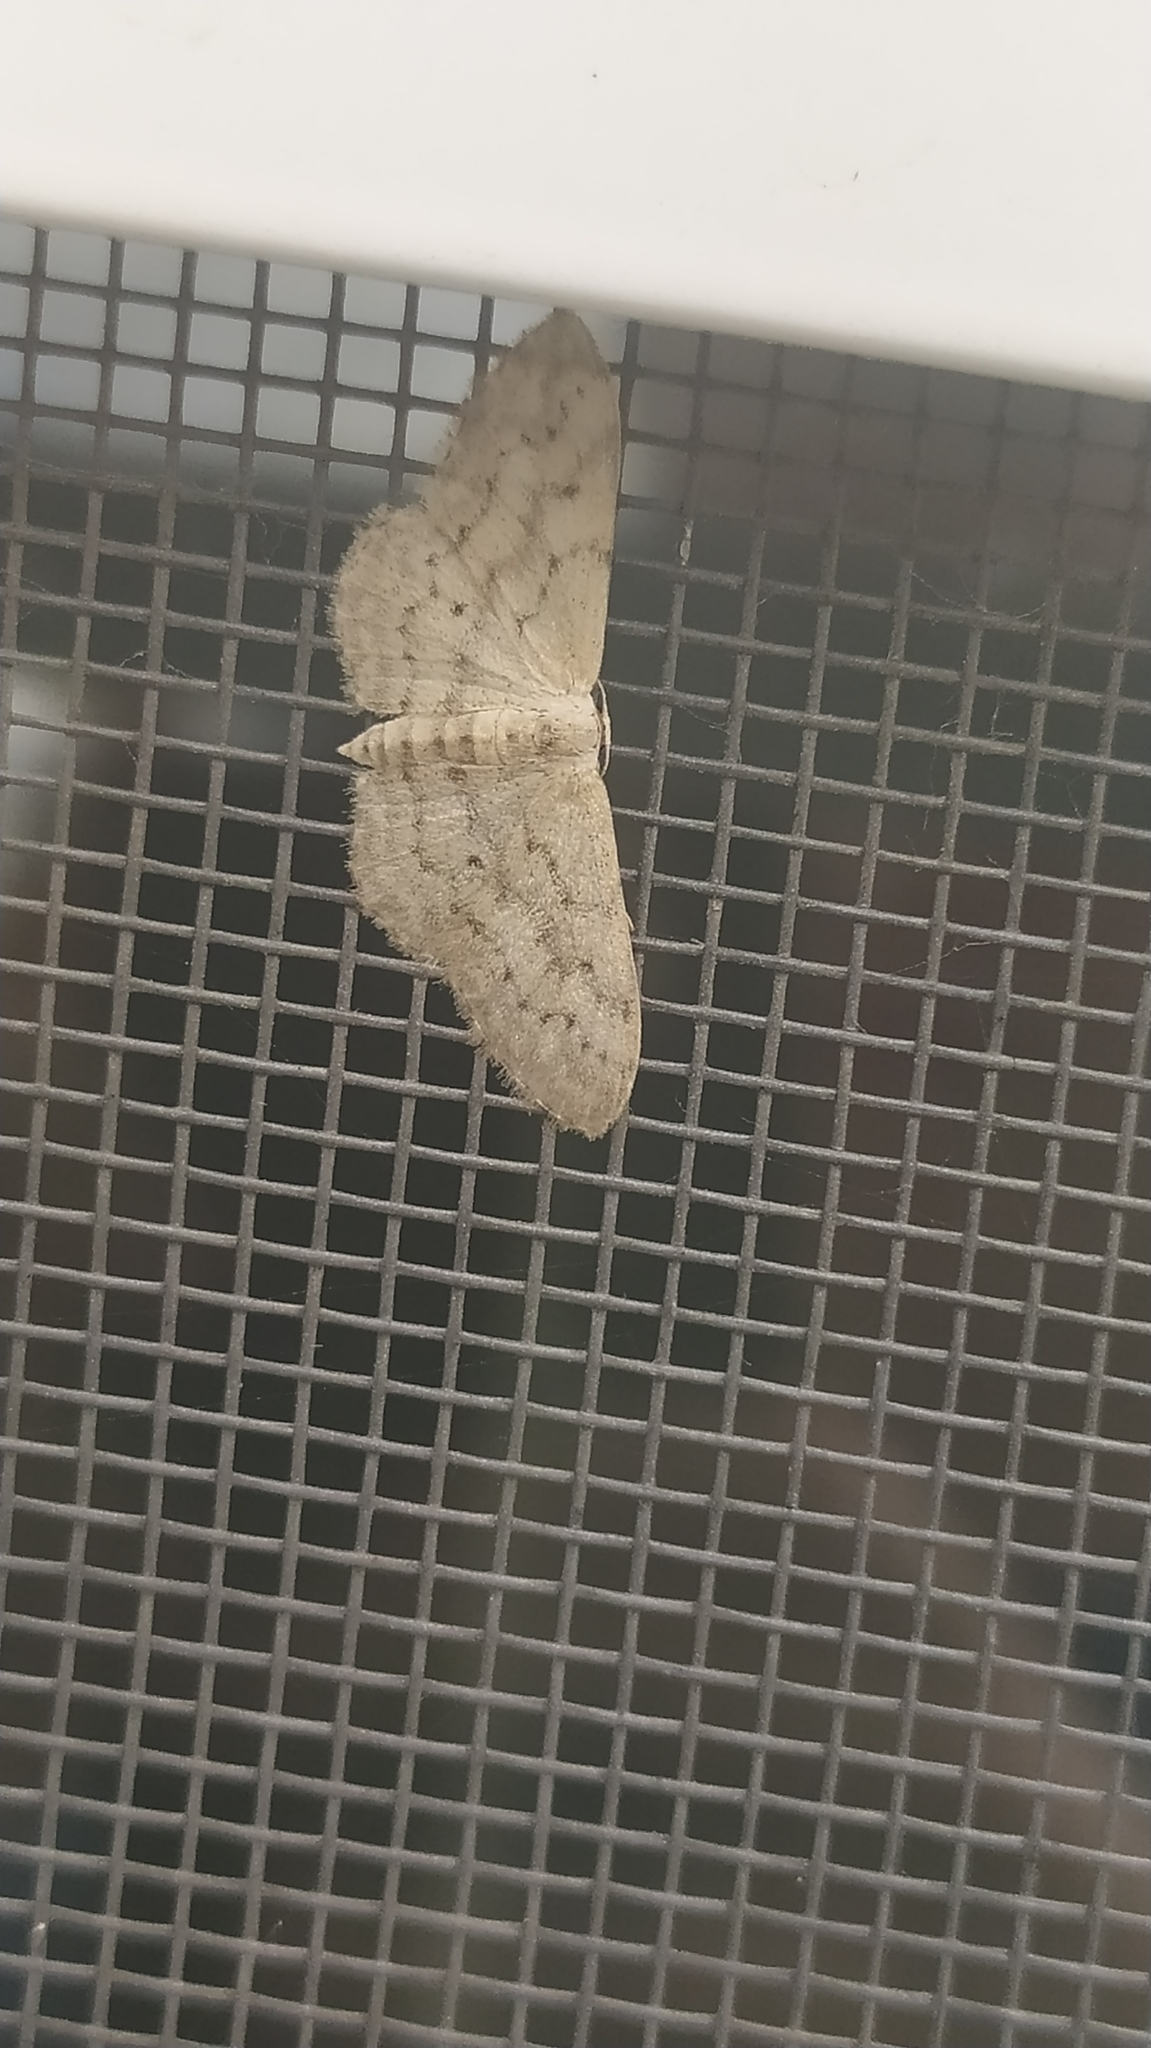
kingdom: Animalia
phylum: Arthropoda
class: Insecta
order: Lepidoptera
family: Geometridae
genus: Idaea
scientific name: Idaea seriata
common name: Small dusty wave
